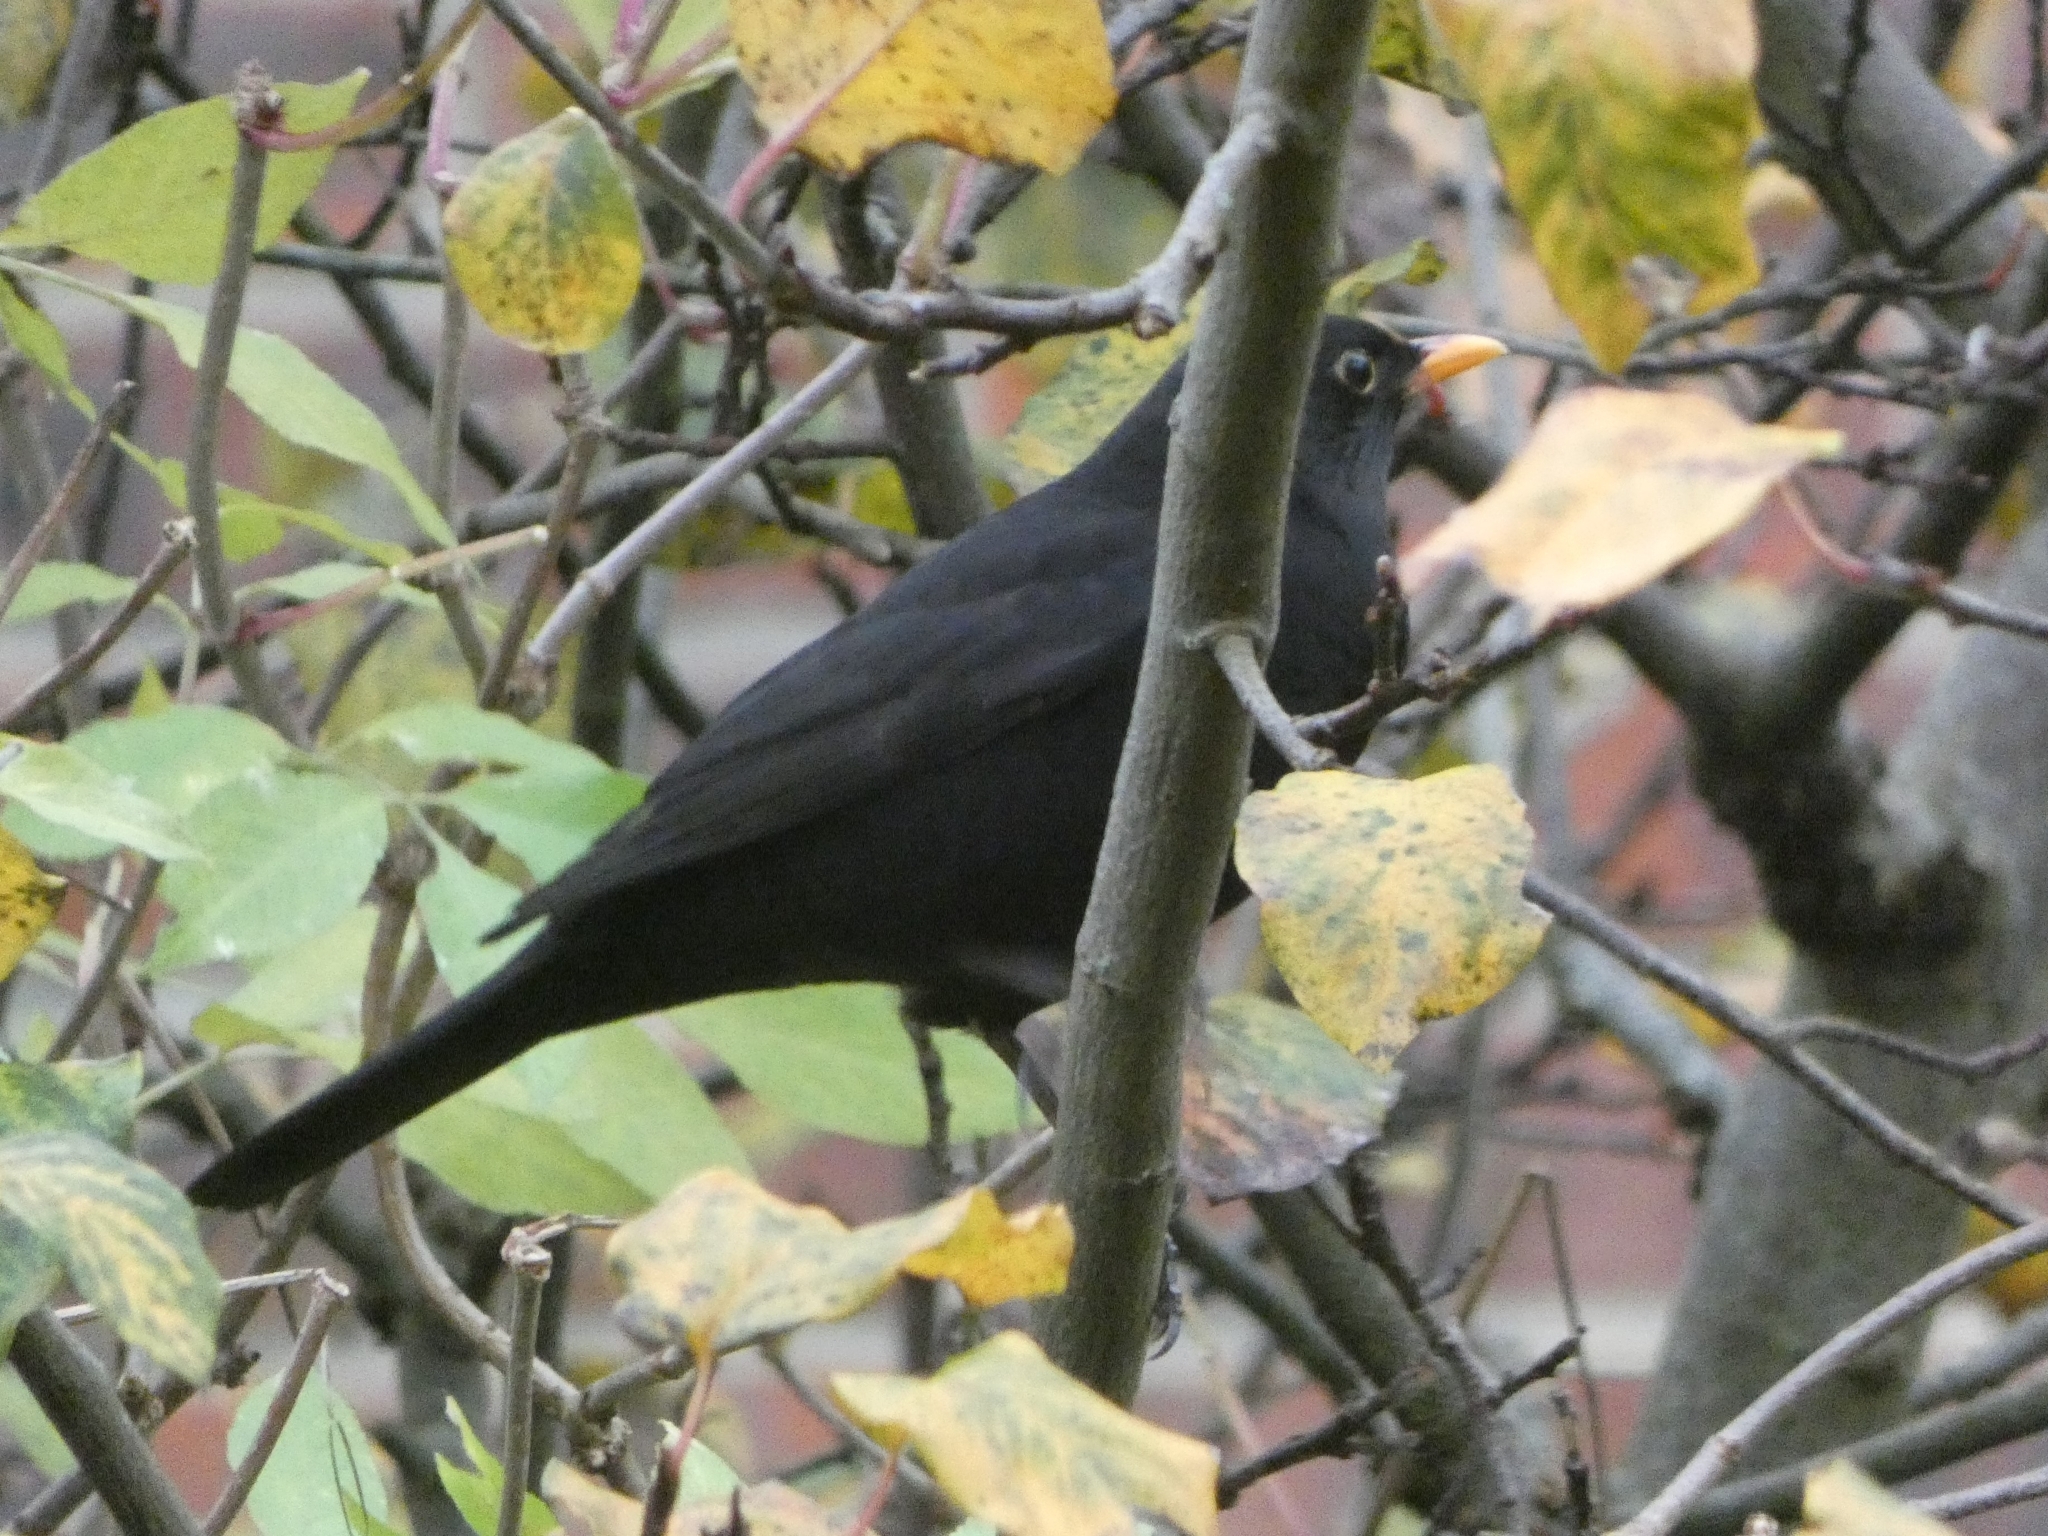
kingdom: Animalia
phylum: Chordata
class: Aves
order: Passeriformes
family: Turdidae
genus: Turdus
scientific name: Turdus merula
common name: Common blackbird
